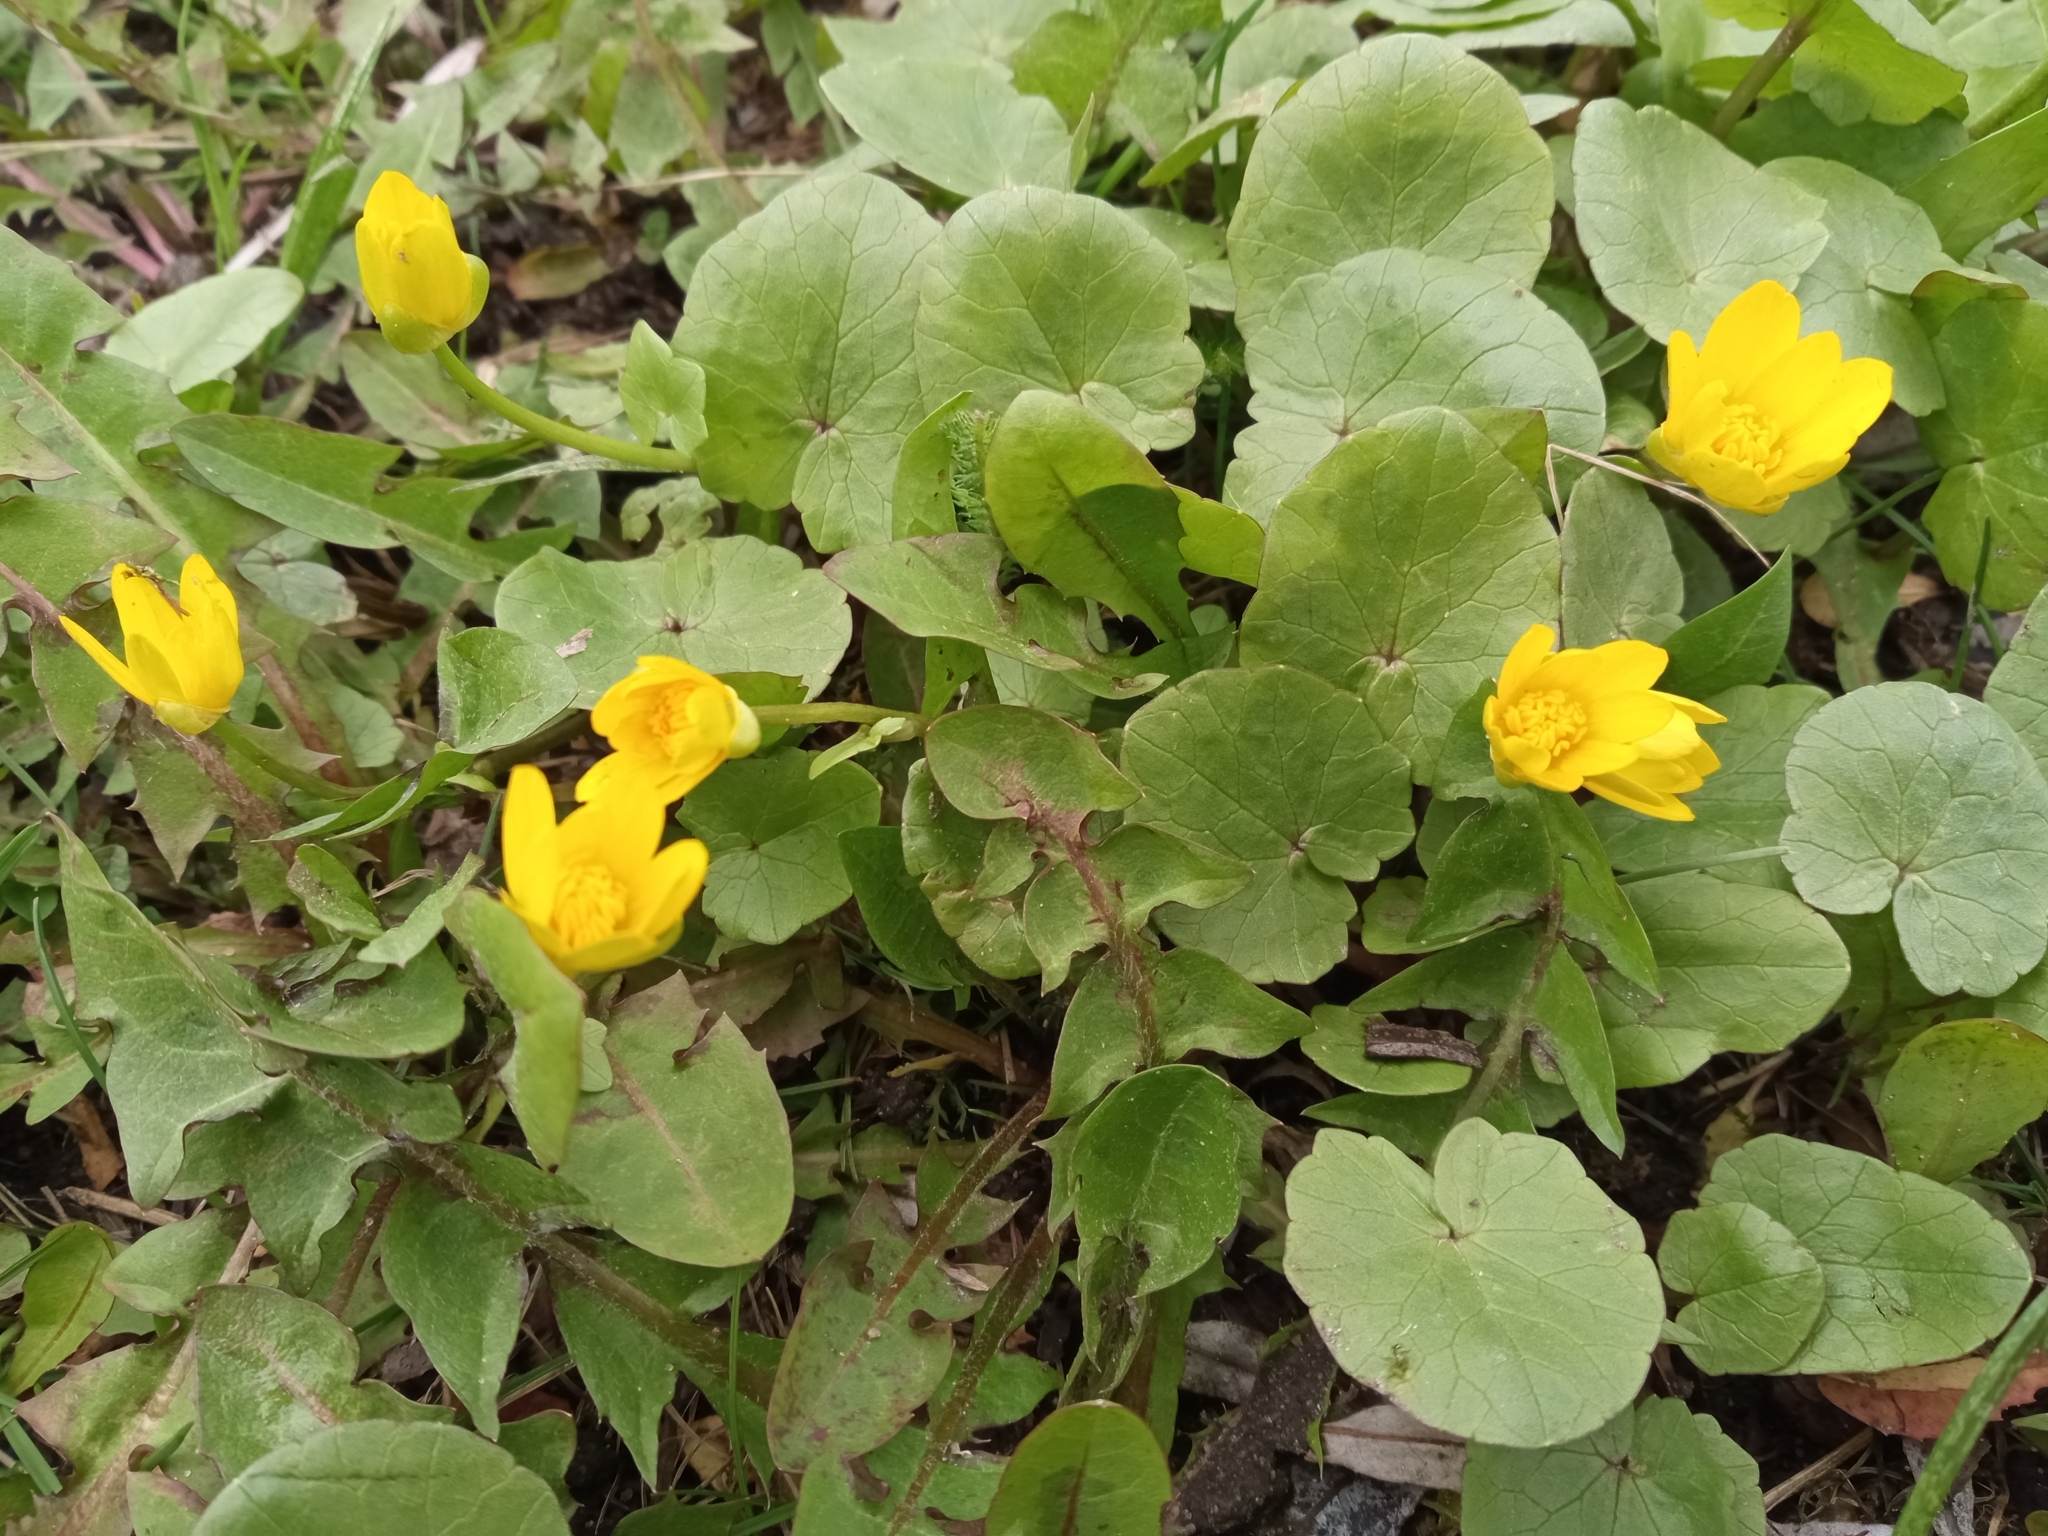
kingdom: Plantae
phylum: Tracheophyta
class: Magnoliopsida
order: Ranunculales
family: Ranunculaceae
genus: Ficaria
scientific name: Ficaria verna
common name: Lesser celandine
